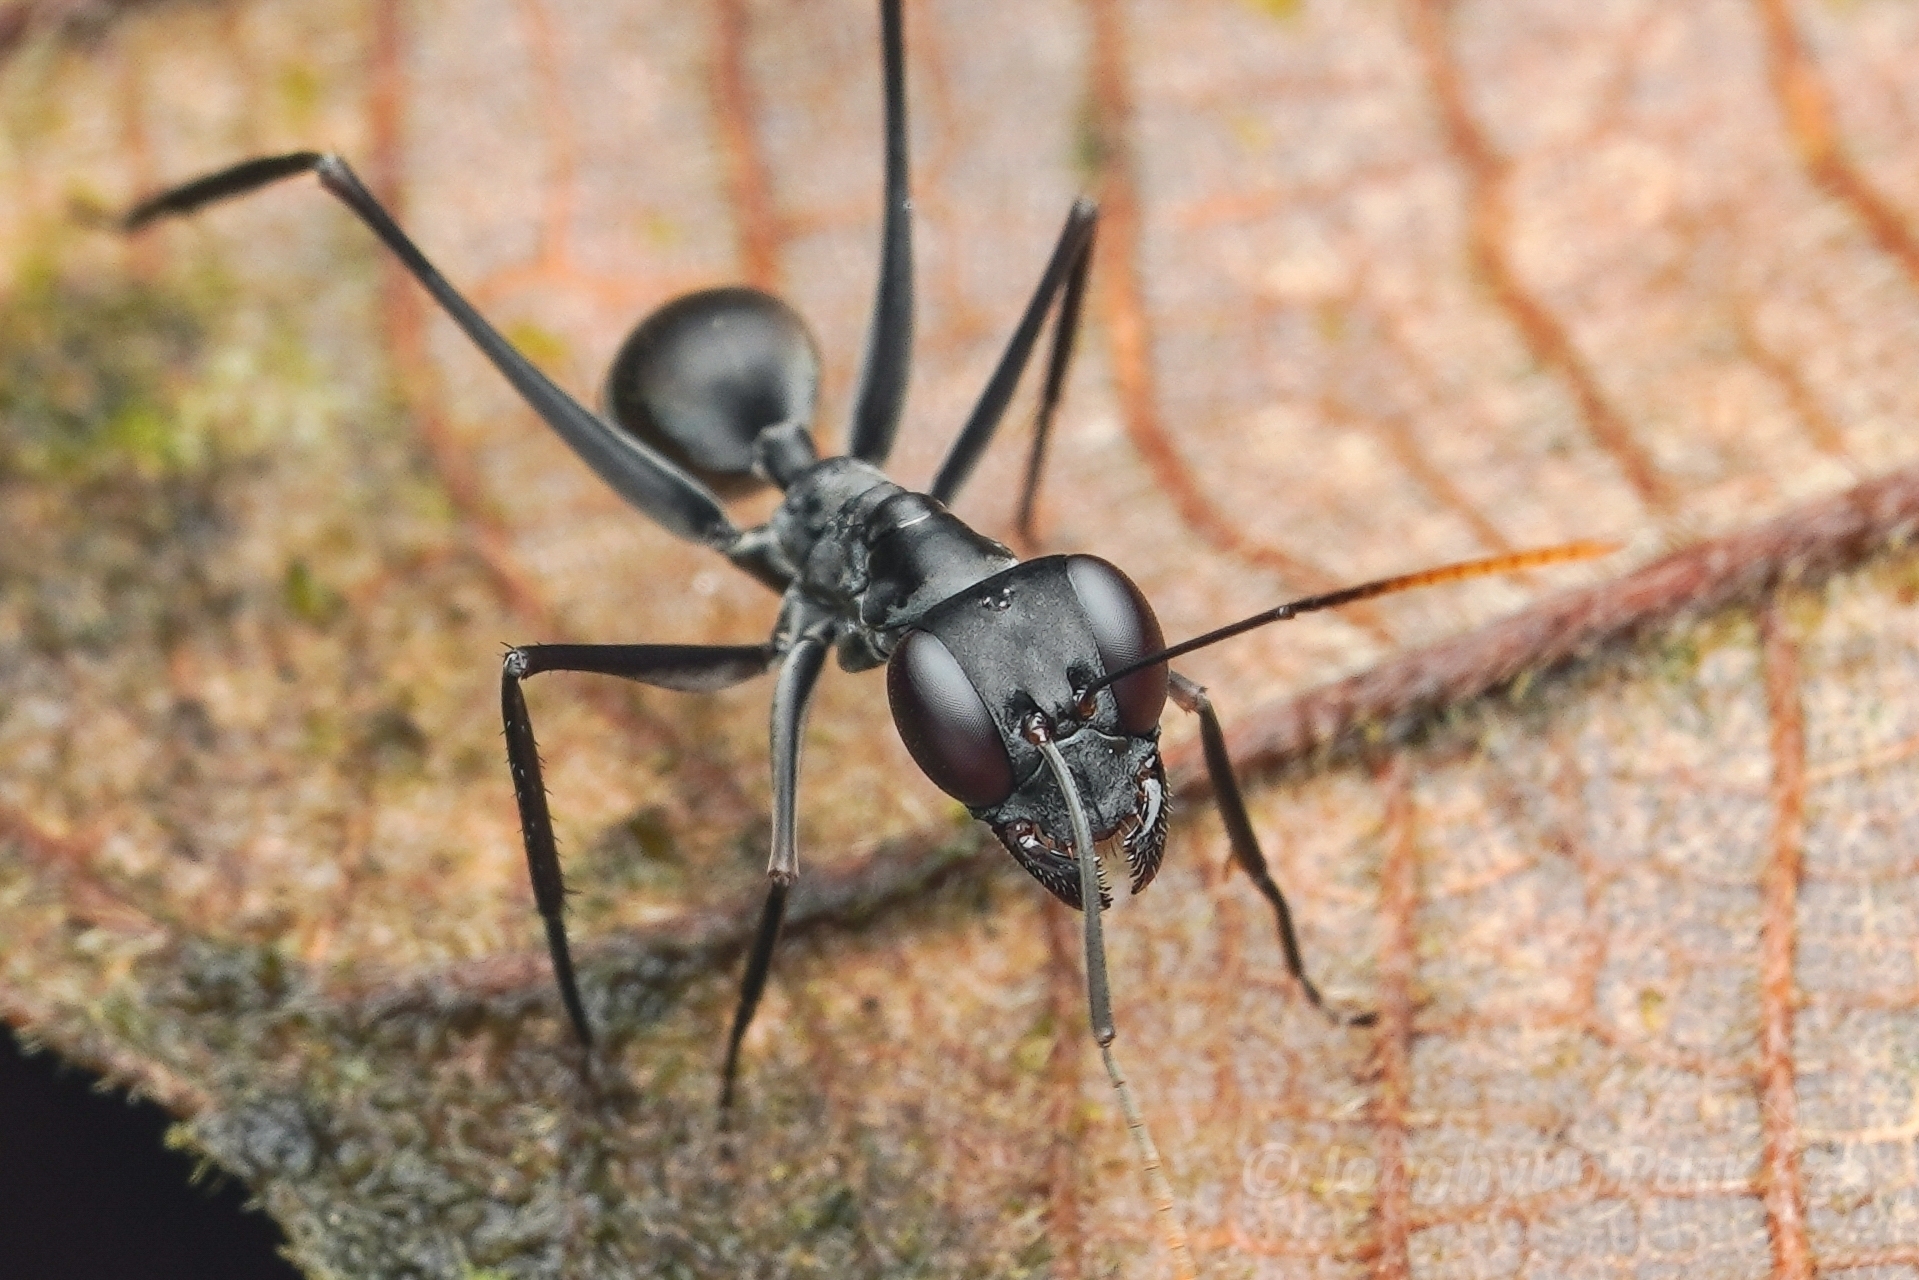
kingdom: Animalia
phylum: Arthropoda
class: Insecta
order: Hymenoptera
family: Formicidae
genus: Gigantiops
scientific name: Gigantiops destructor
